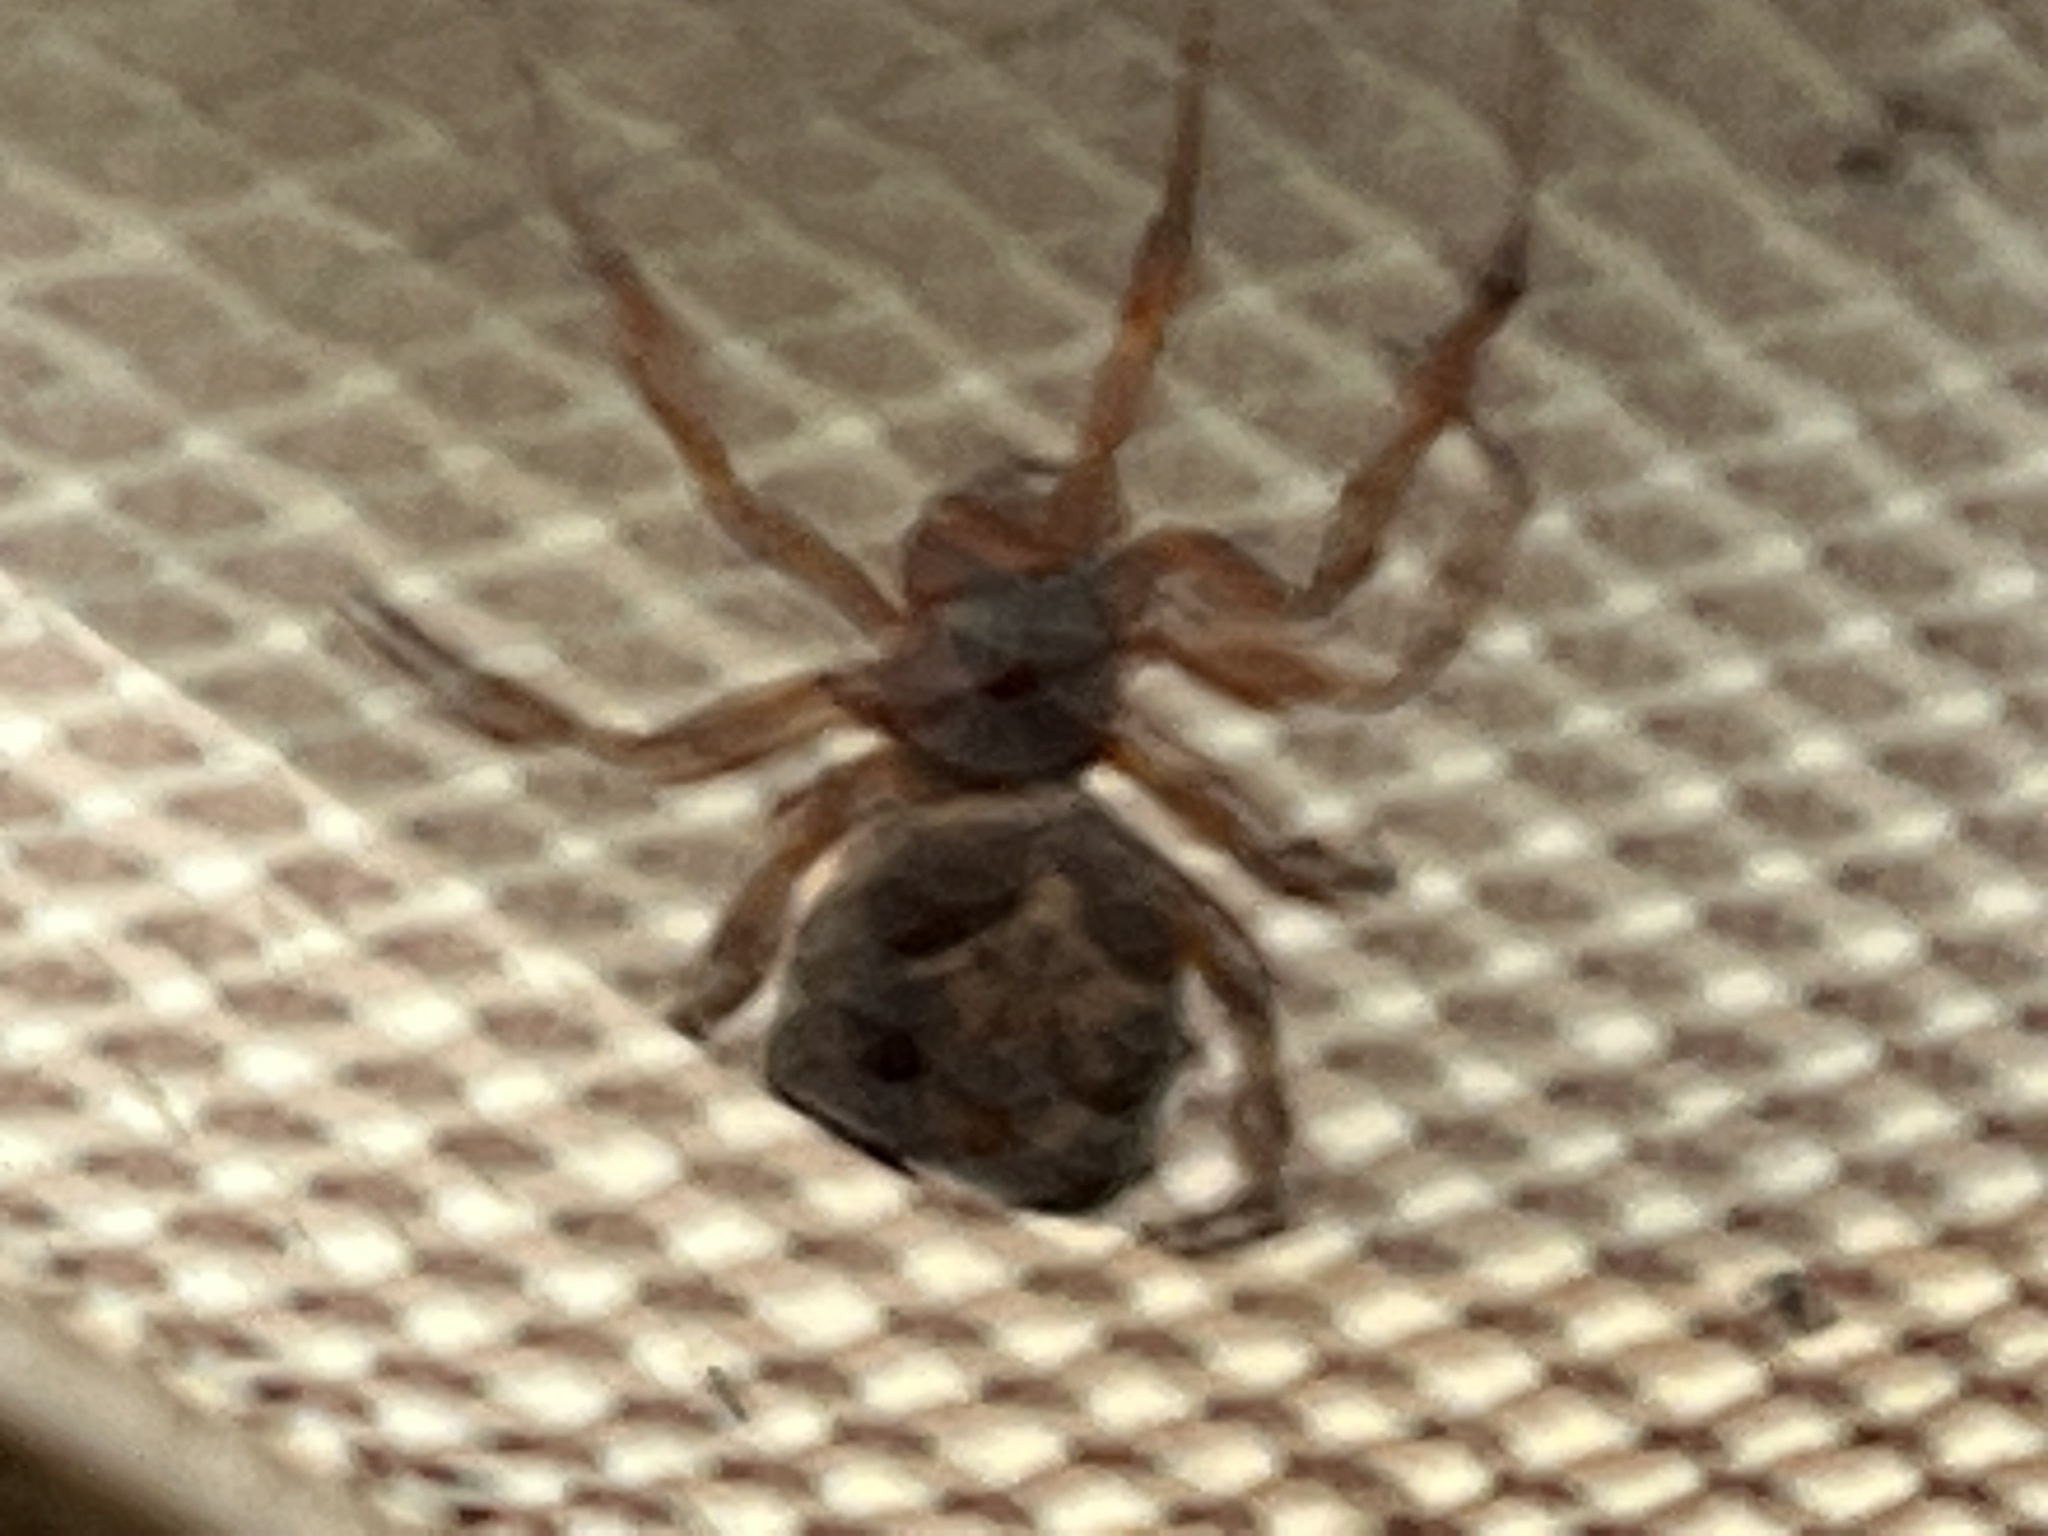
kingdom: Animalia
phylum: Arthropoda
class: Arachnida
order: Araneae
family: Theridiidae
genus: Steatoda
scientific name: Steatoda nobilis
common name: Cobweb weaver
